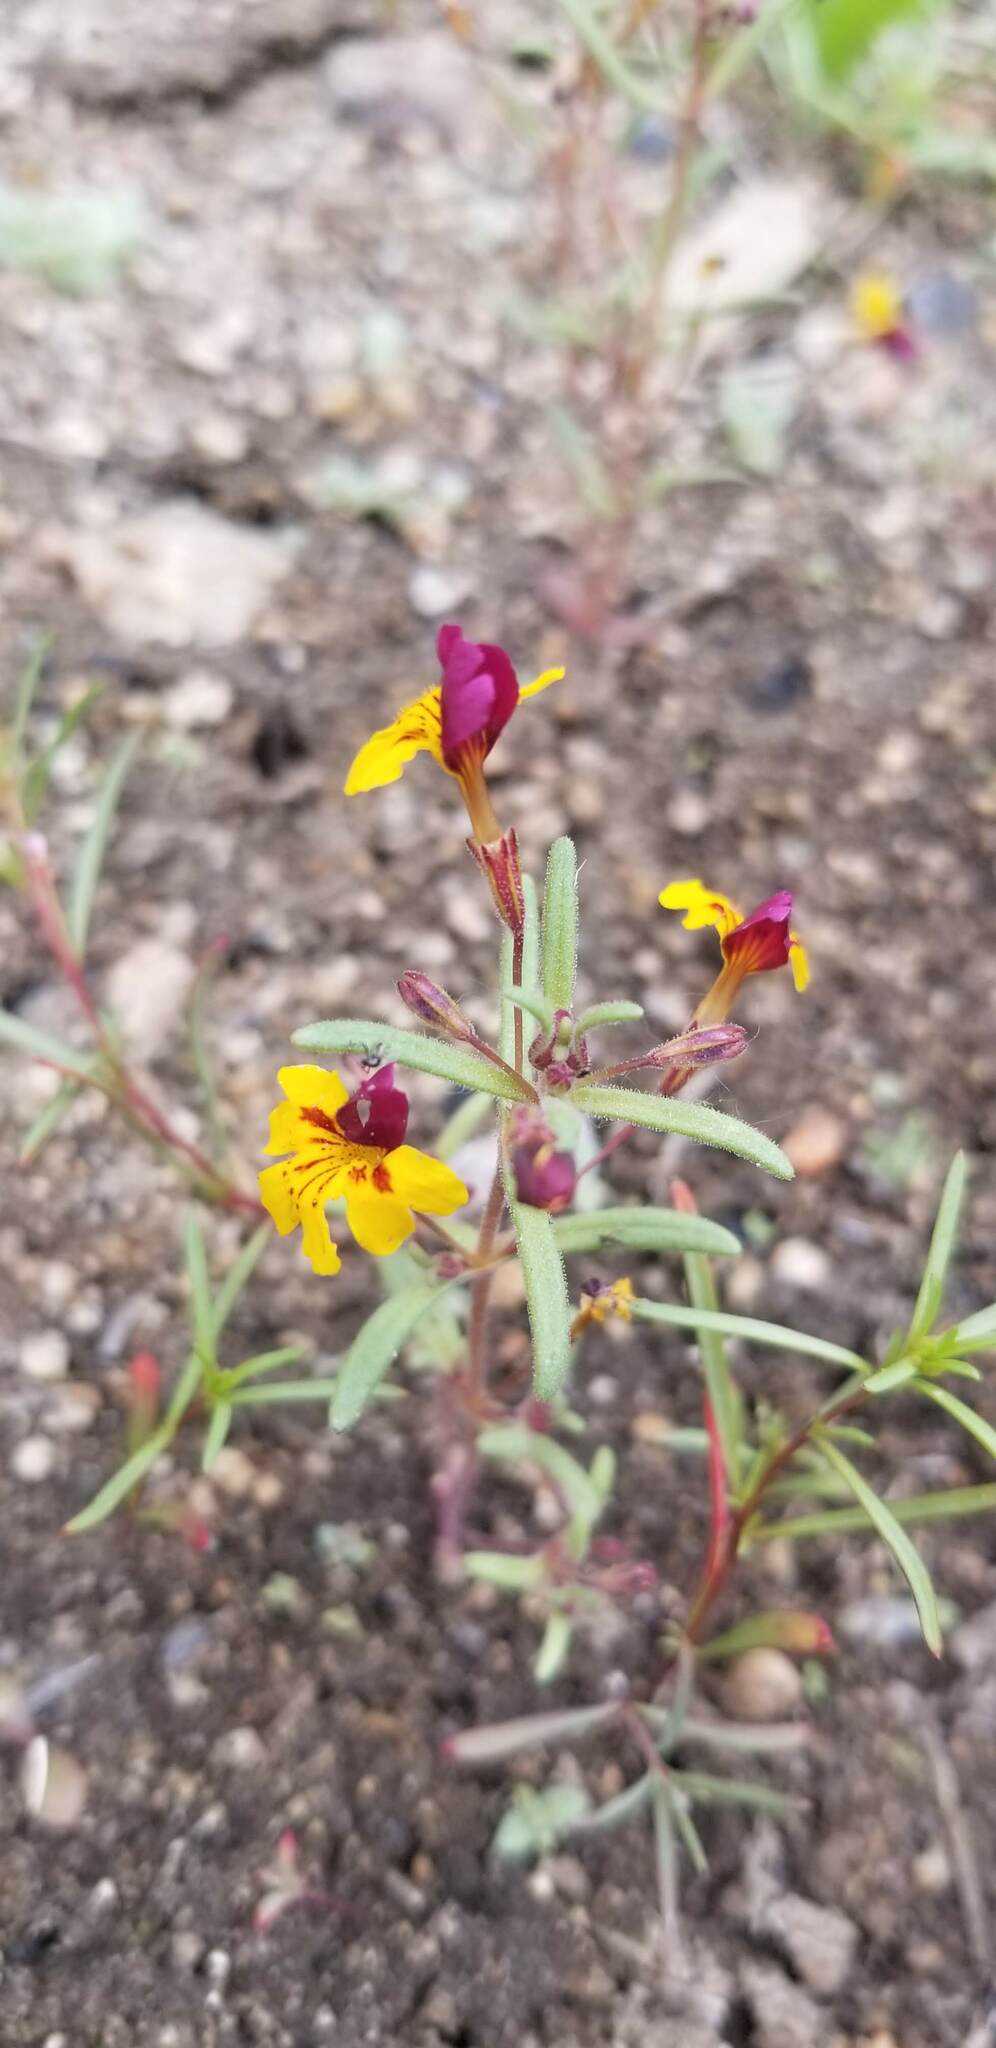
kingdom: Plantae
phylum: Tracheophyta
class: Magnoliopsida
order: Lamiales
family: Phrymaceae
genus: Erythranthe
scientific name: Erythranthe barbata
